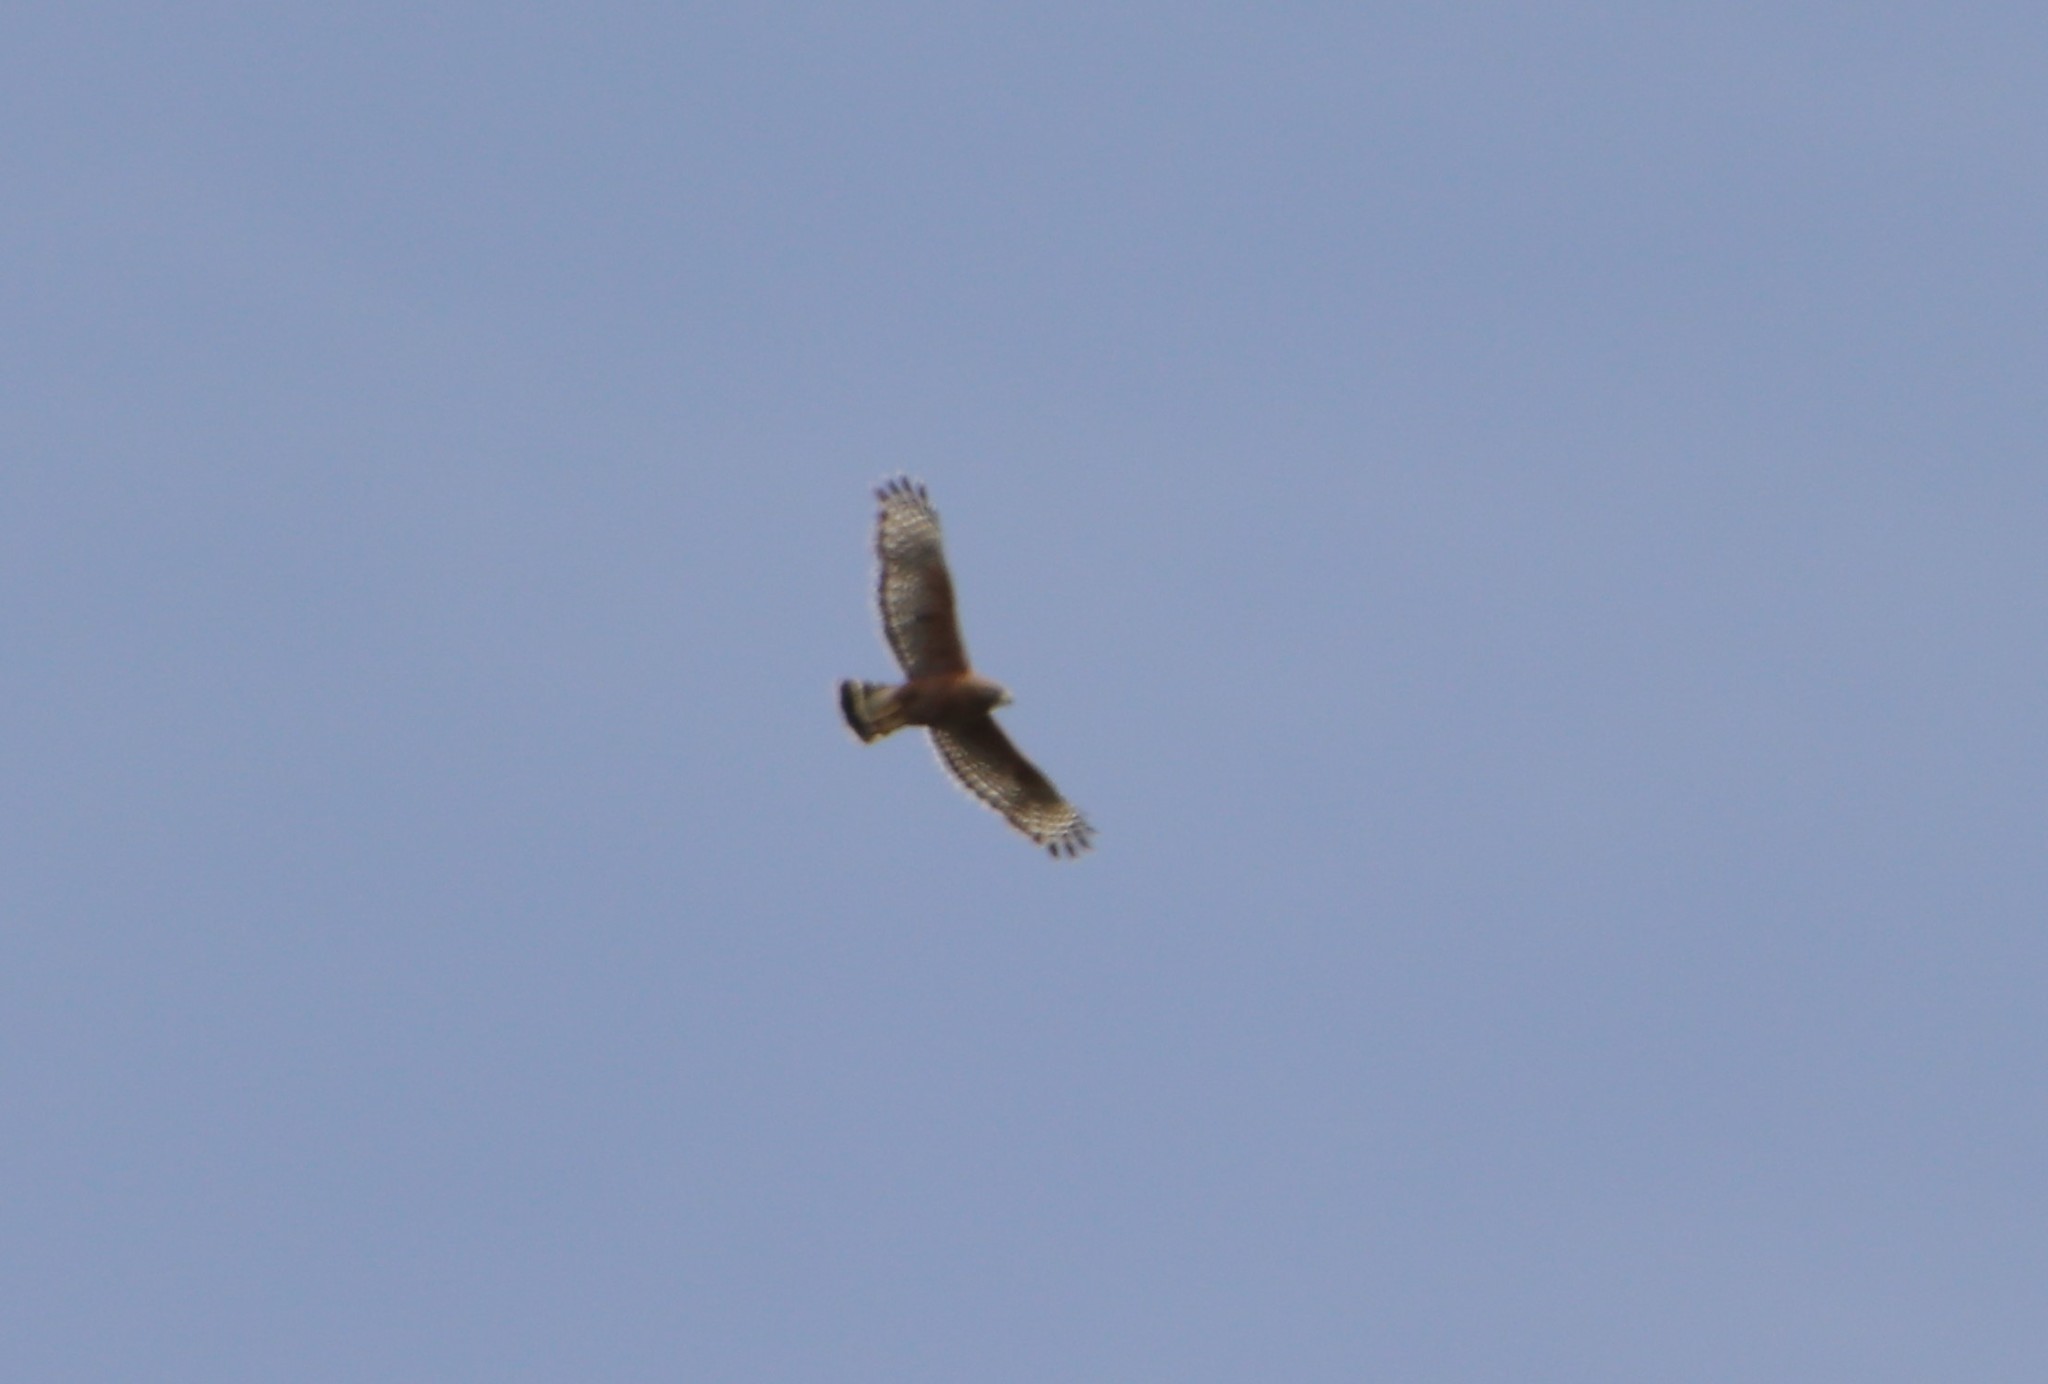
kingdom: Animalia
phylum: Chordata
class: Aves
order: Accipitriformes
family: Accipitridae
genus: Buteo
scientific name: Buteo lineatus
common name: Red-shouldered hawk
